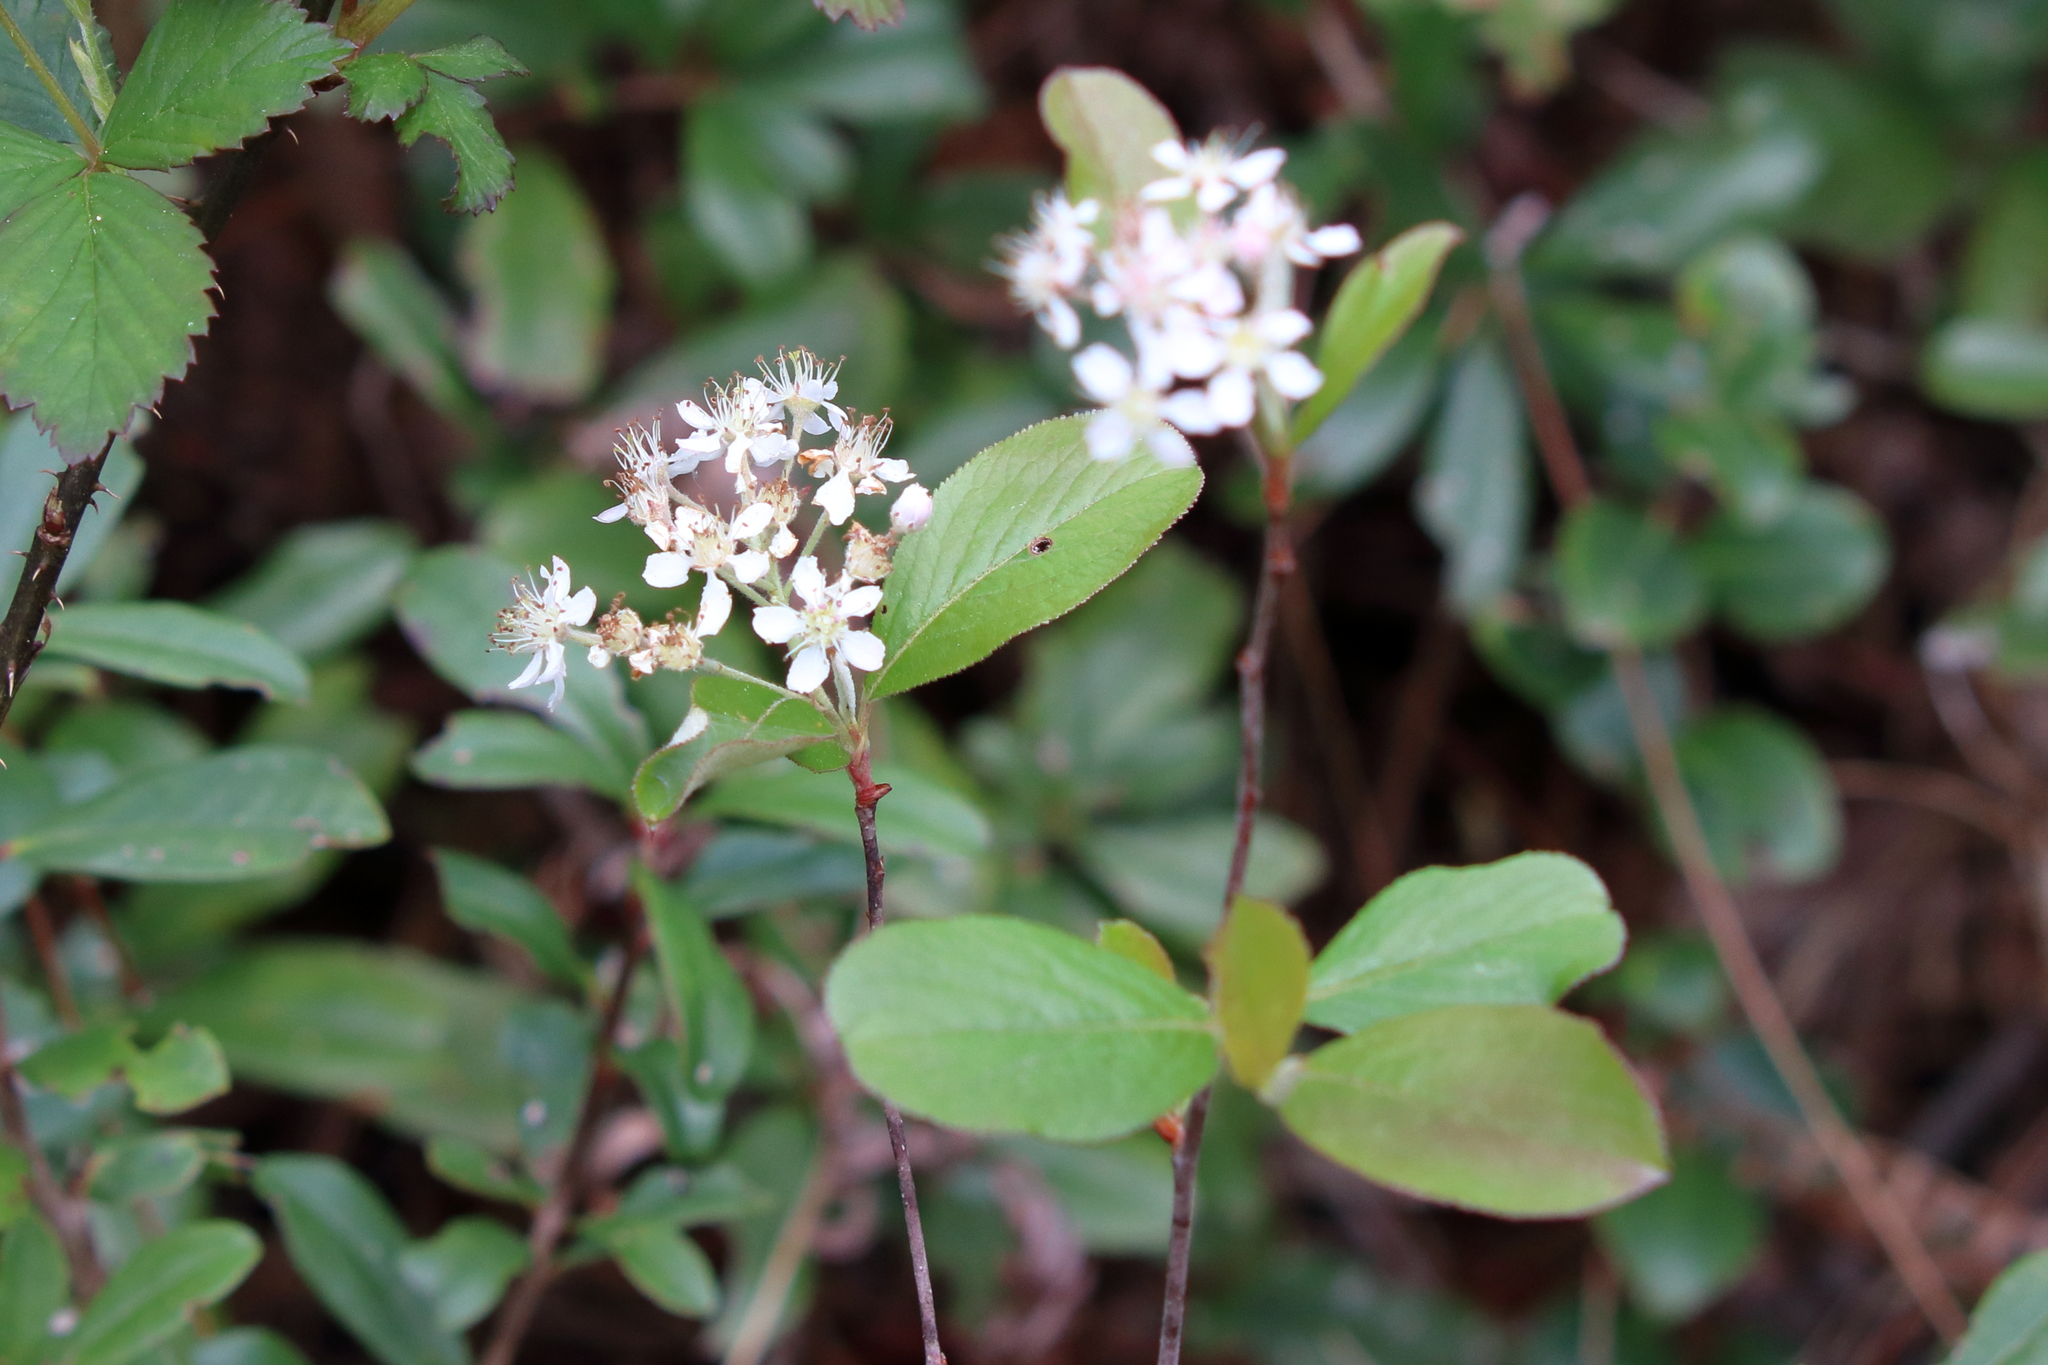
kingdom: Plantae
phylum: Tracheophyta
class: Magnoliopsida
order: Rosales
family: Rosaceae
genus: Aronia
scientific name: Aronia arbutifolia
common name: Red chokeberry
